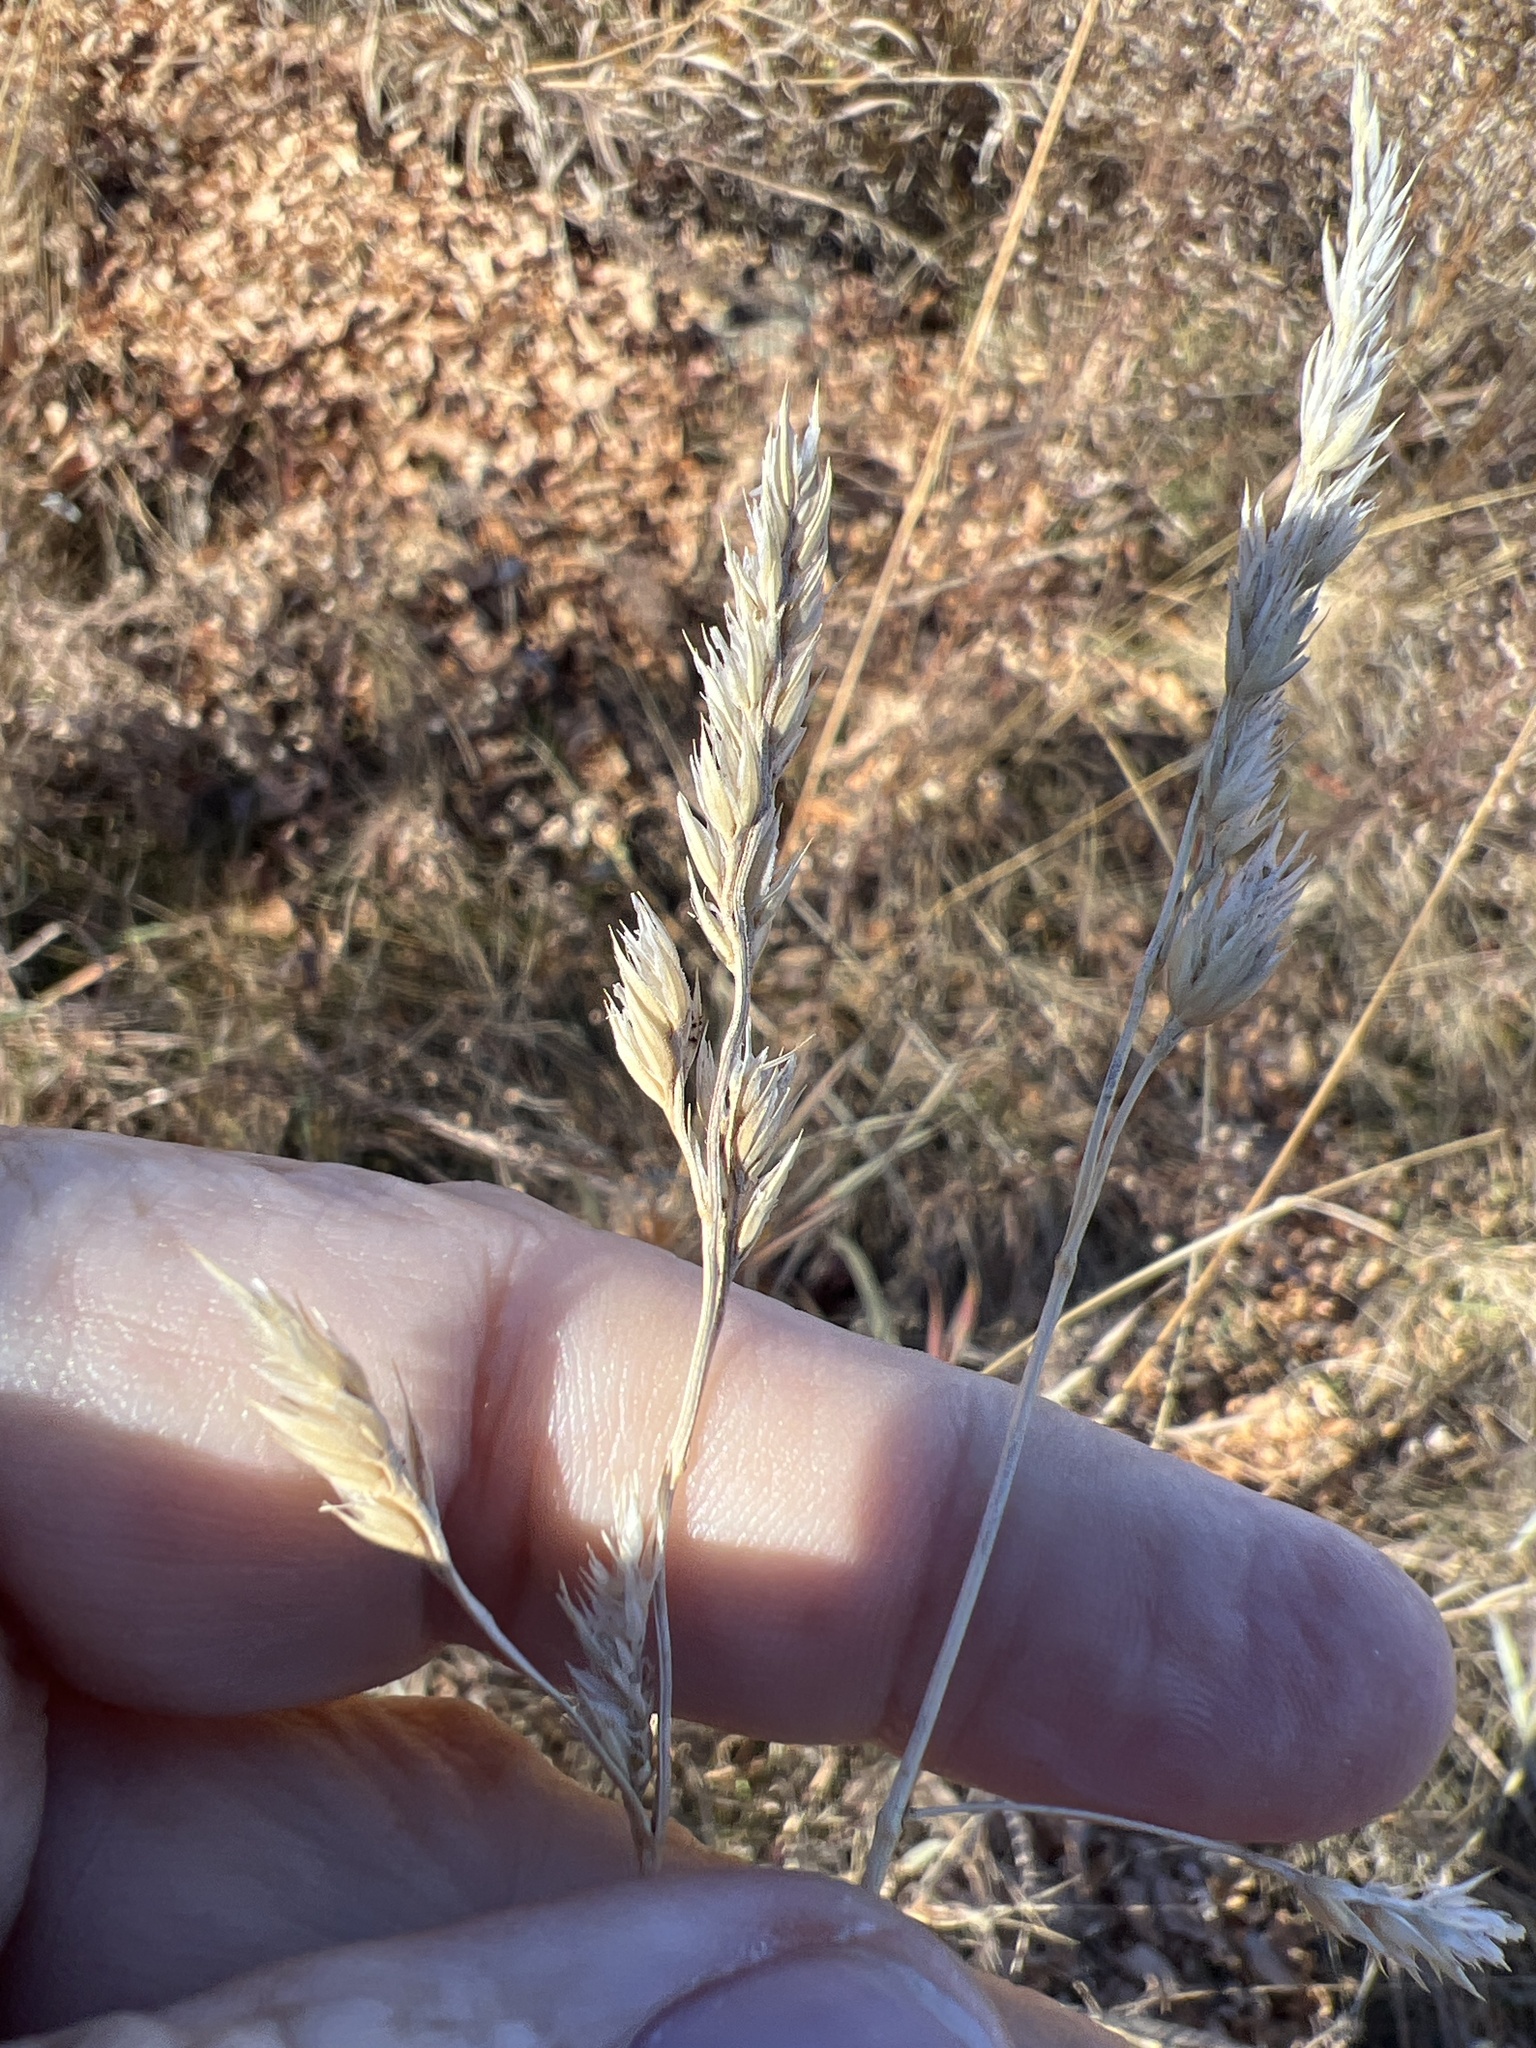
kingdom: Plantae
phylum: Tracheophyta
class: Liliopsida
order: Poales
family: Poaceae
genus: Dactylis
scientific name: Dactylis glomerata
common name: Orchardgrass
